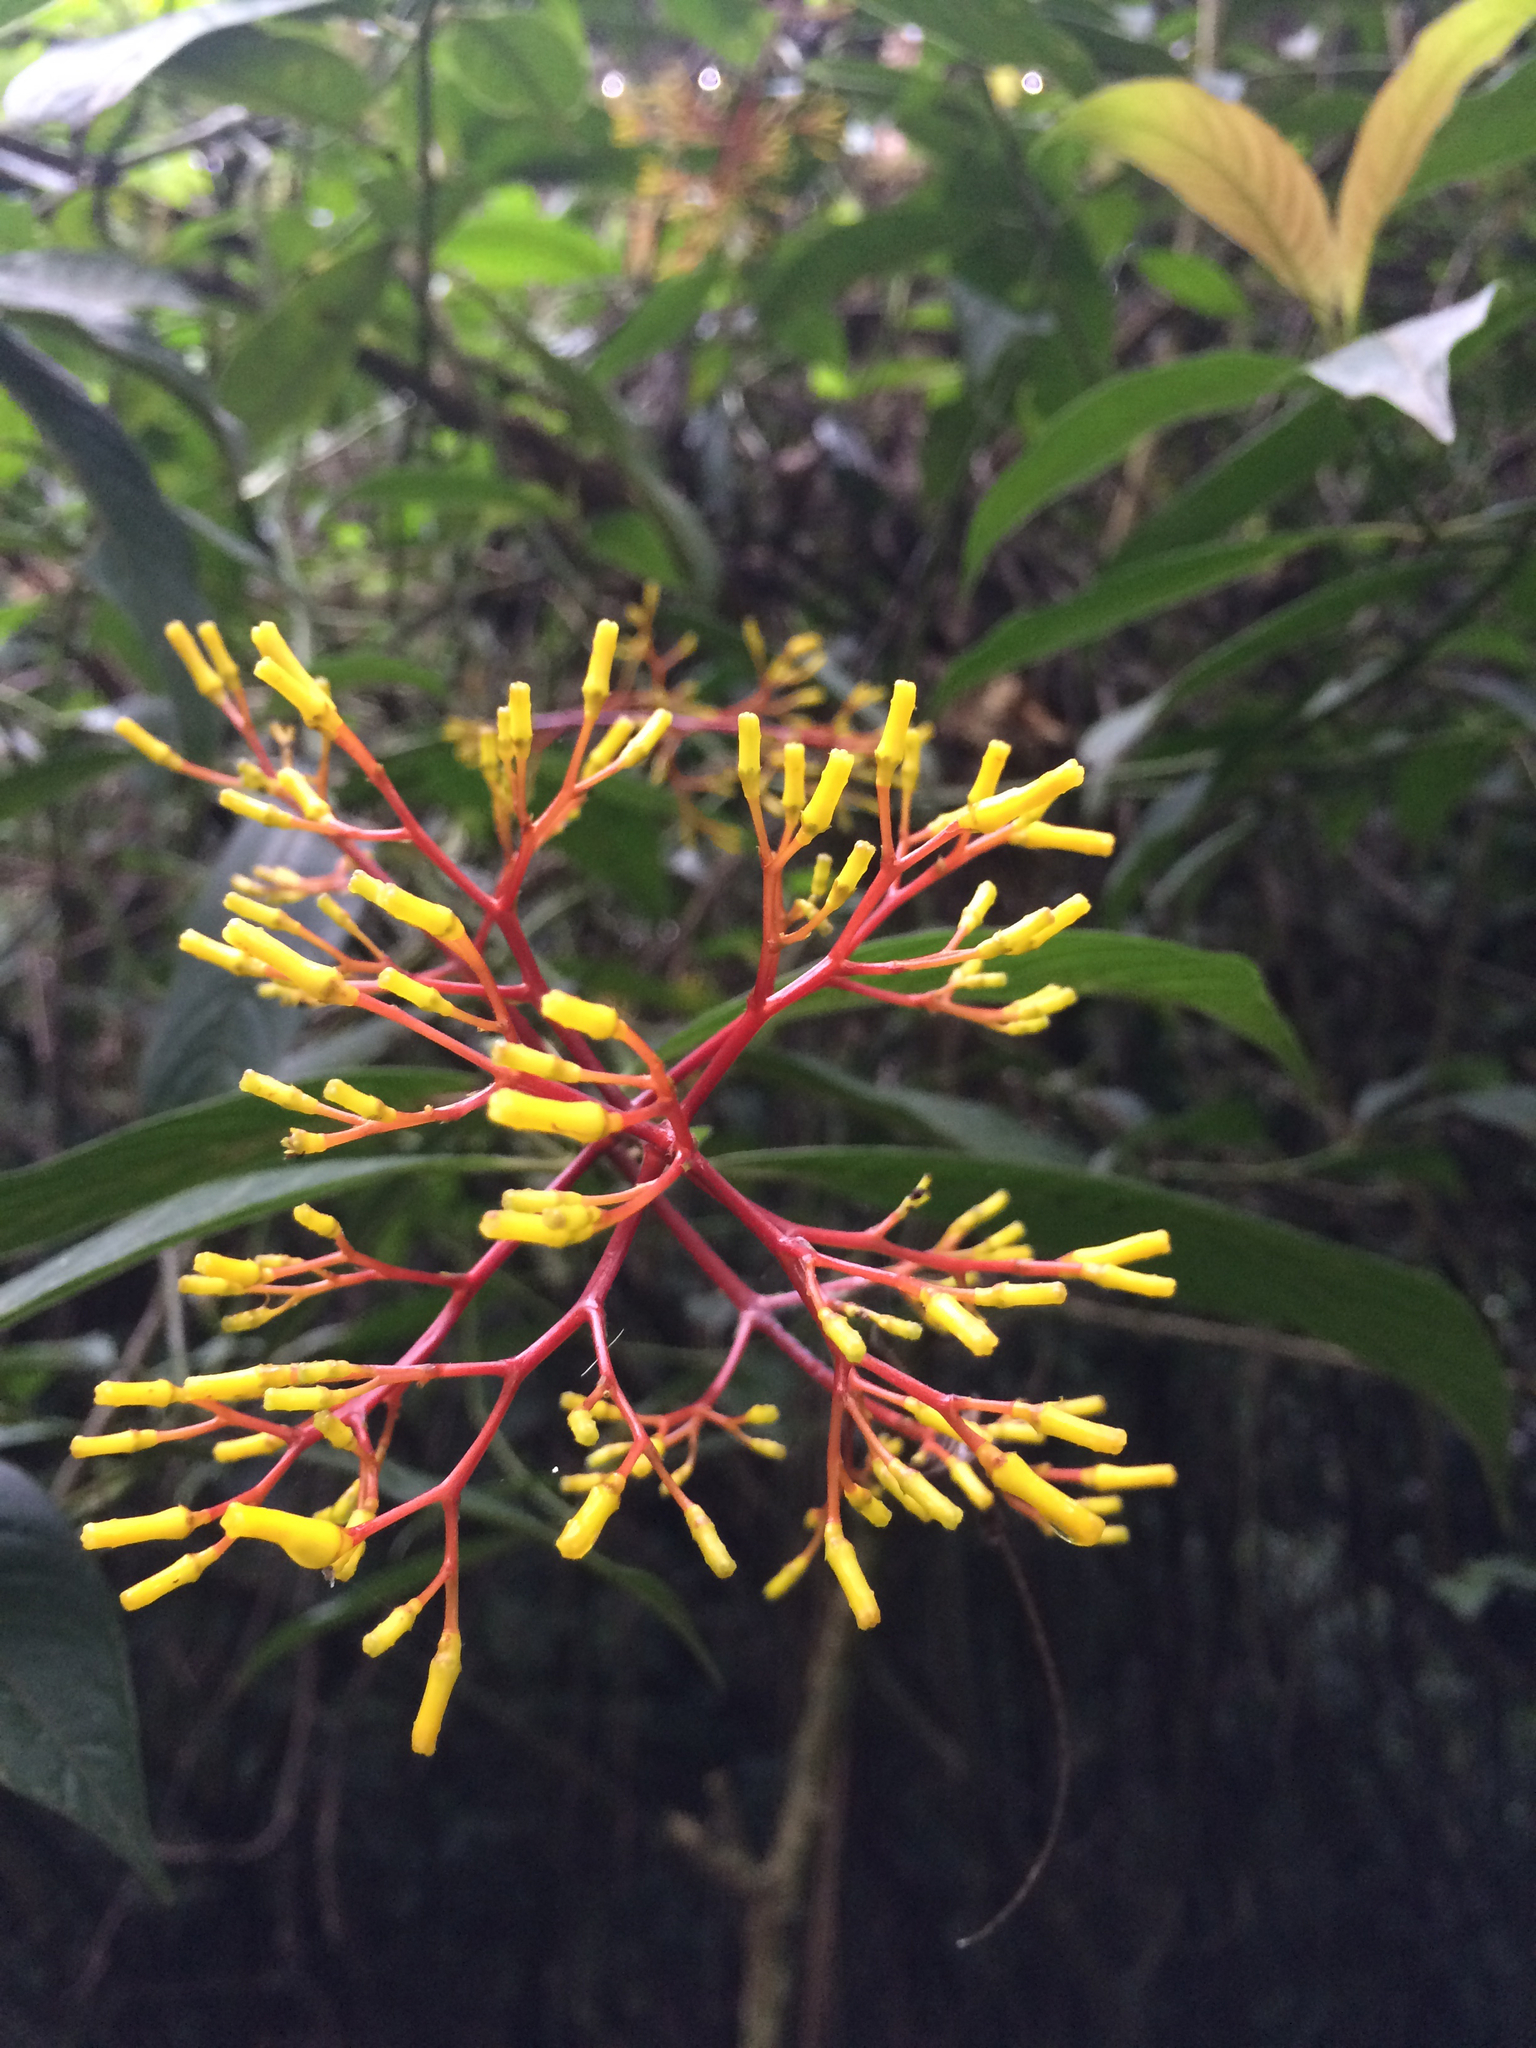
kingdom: Plantae
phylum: Tracheophyta
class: Magnoliopsida
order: Gentianales
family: Rubiaceae
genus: Palicourea
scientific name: Palicourea padifolia
